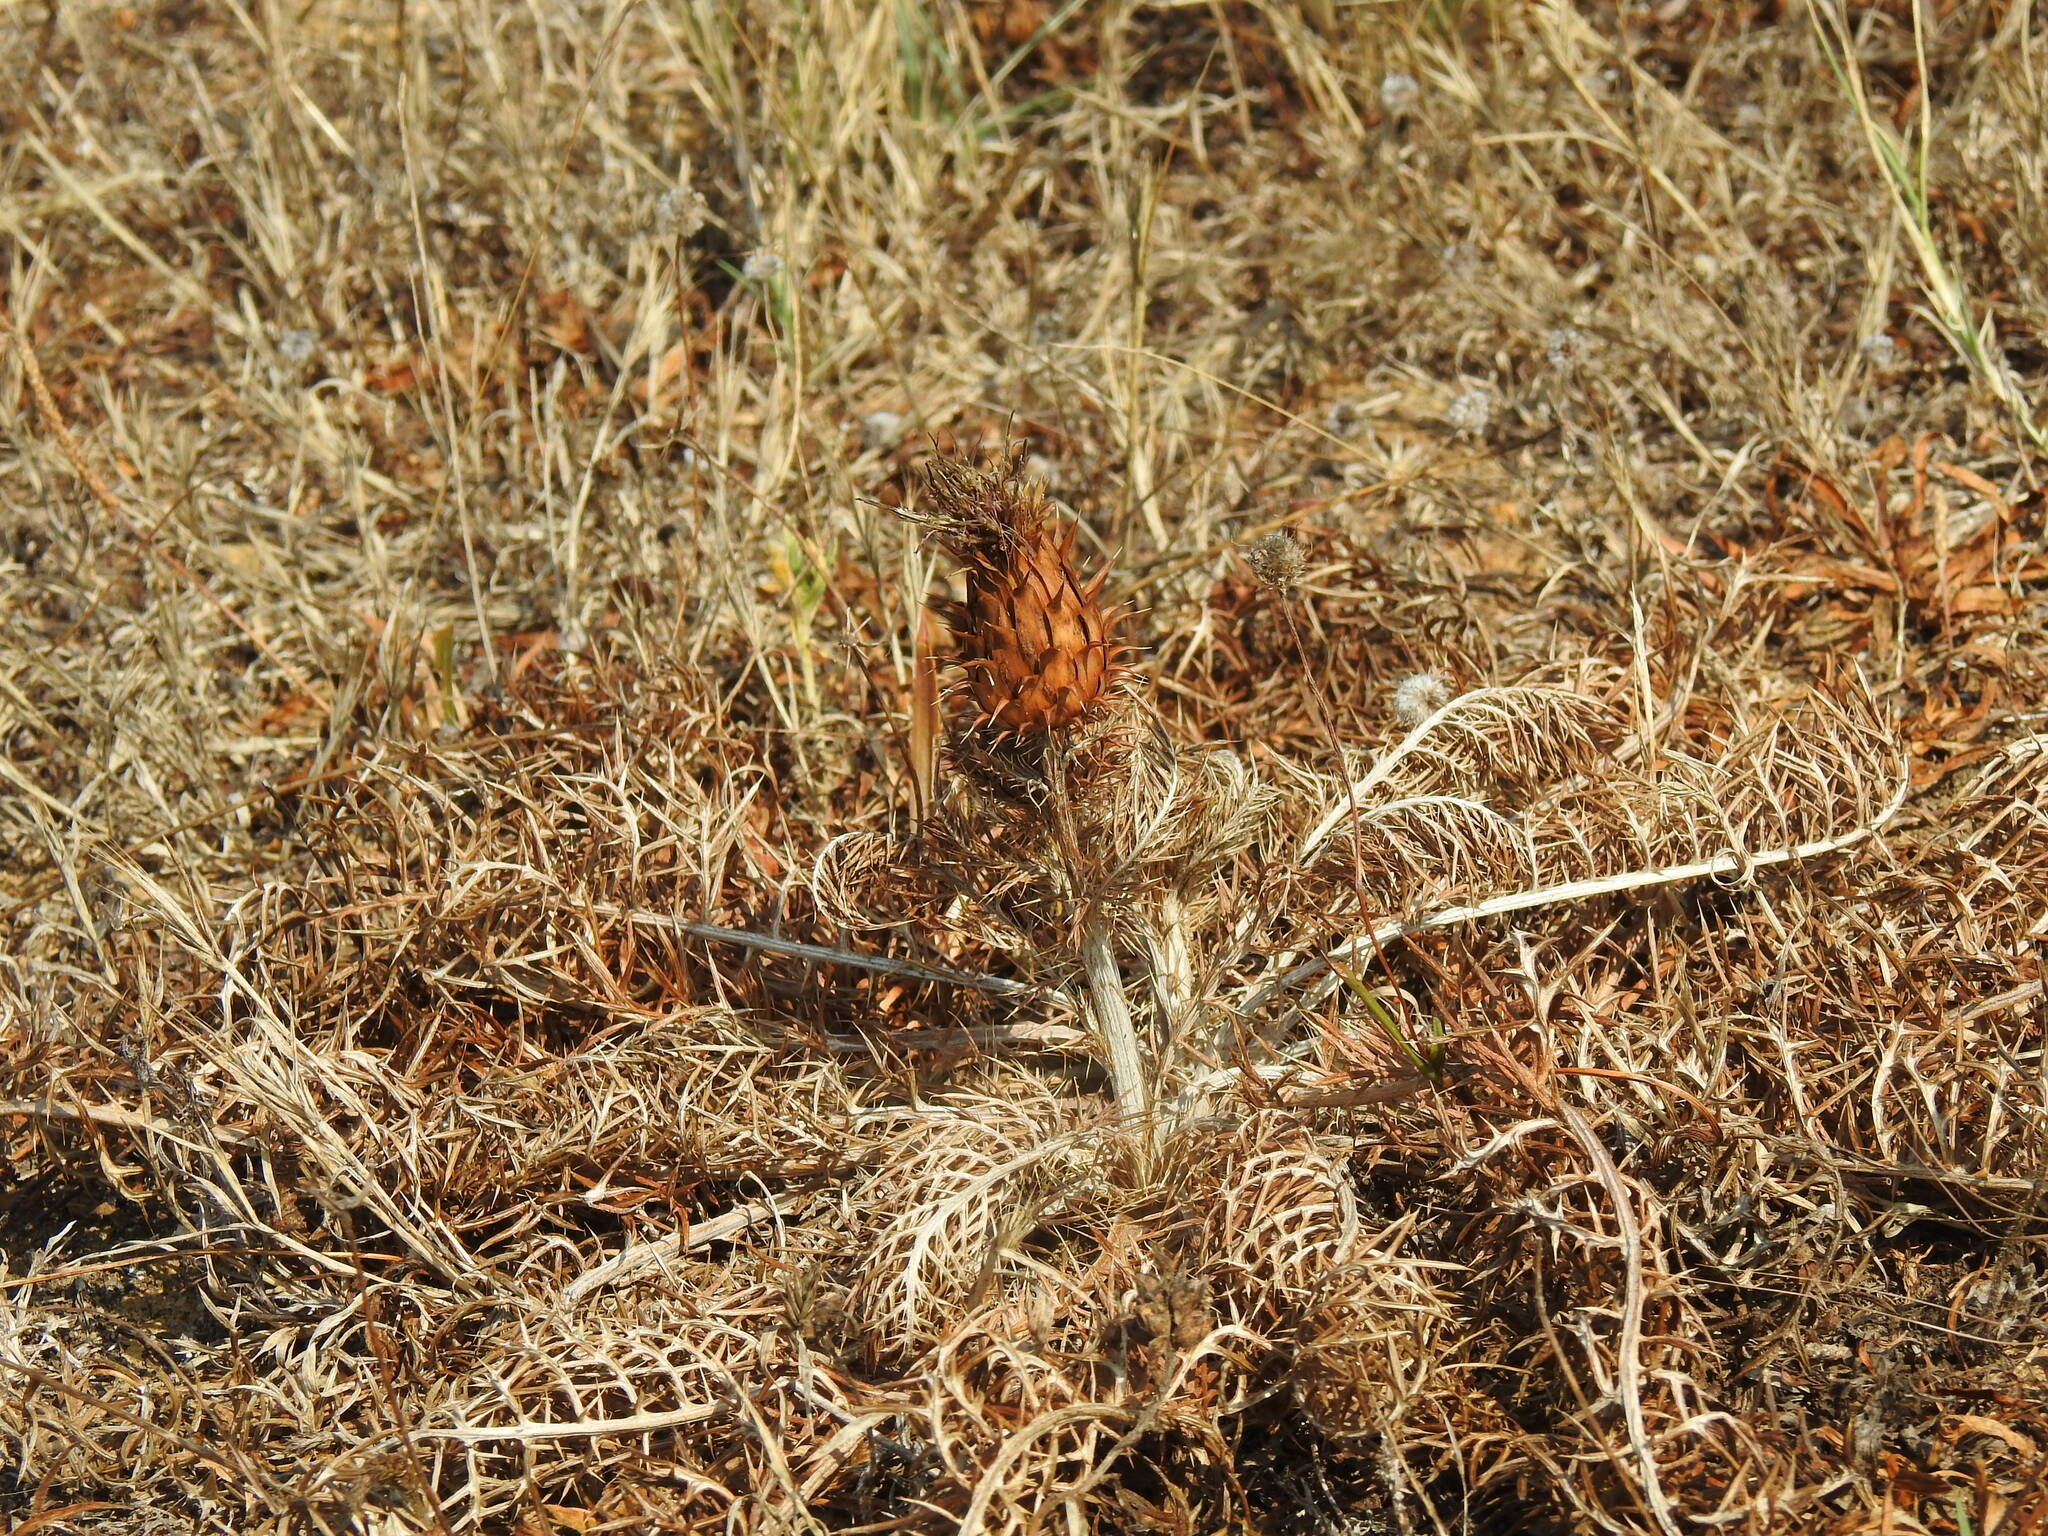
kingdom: Plantae
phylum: Tracheophyta
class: Magnoliopsida
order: Asterales
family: Asteraceae
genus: Cynara
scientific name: Cynara humilis
